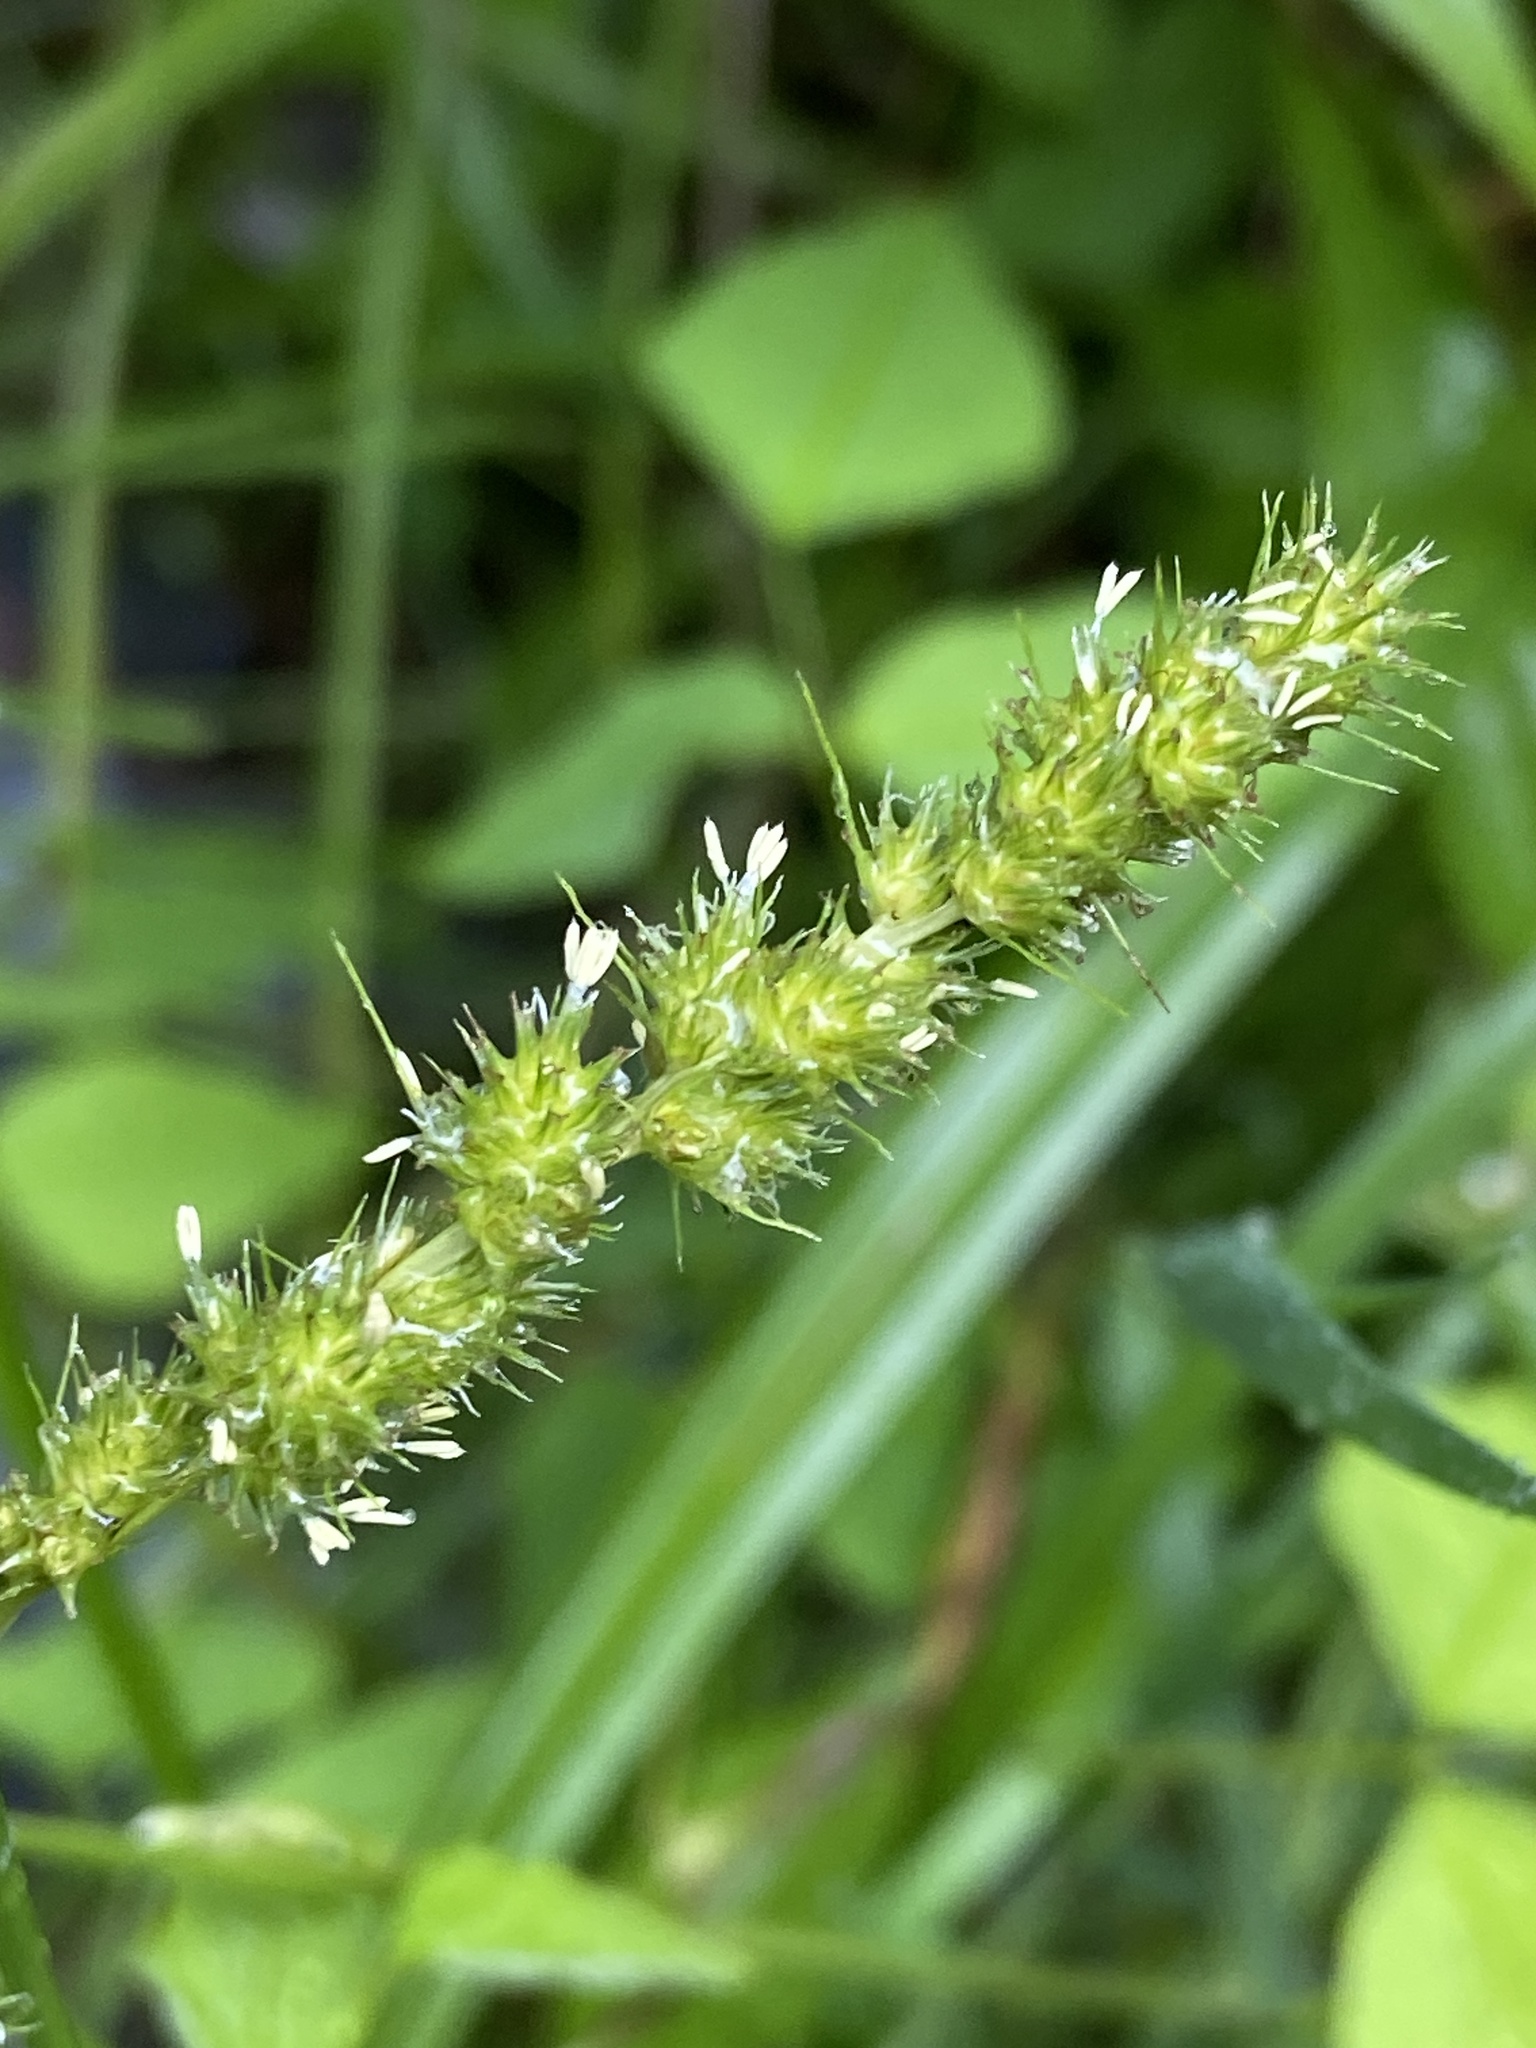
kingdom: Plantae
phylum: Tracheophyta
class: Liliopsida
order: Poales
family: Cyperaceae
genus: Carex
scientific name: Carex vulpinoidea
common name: American fox-sedge
